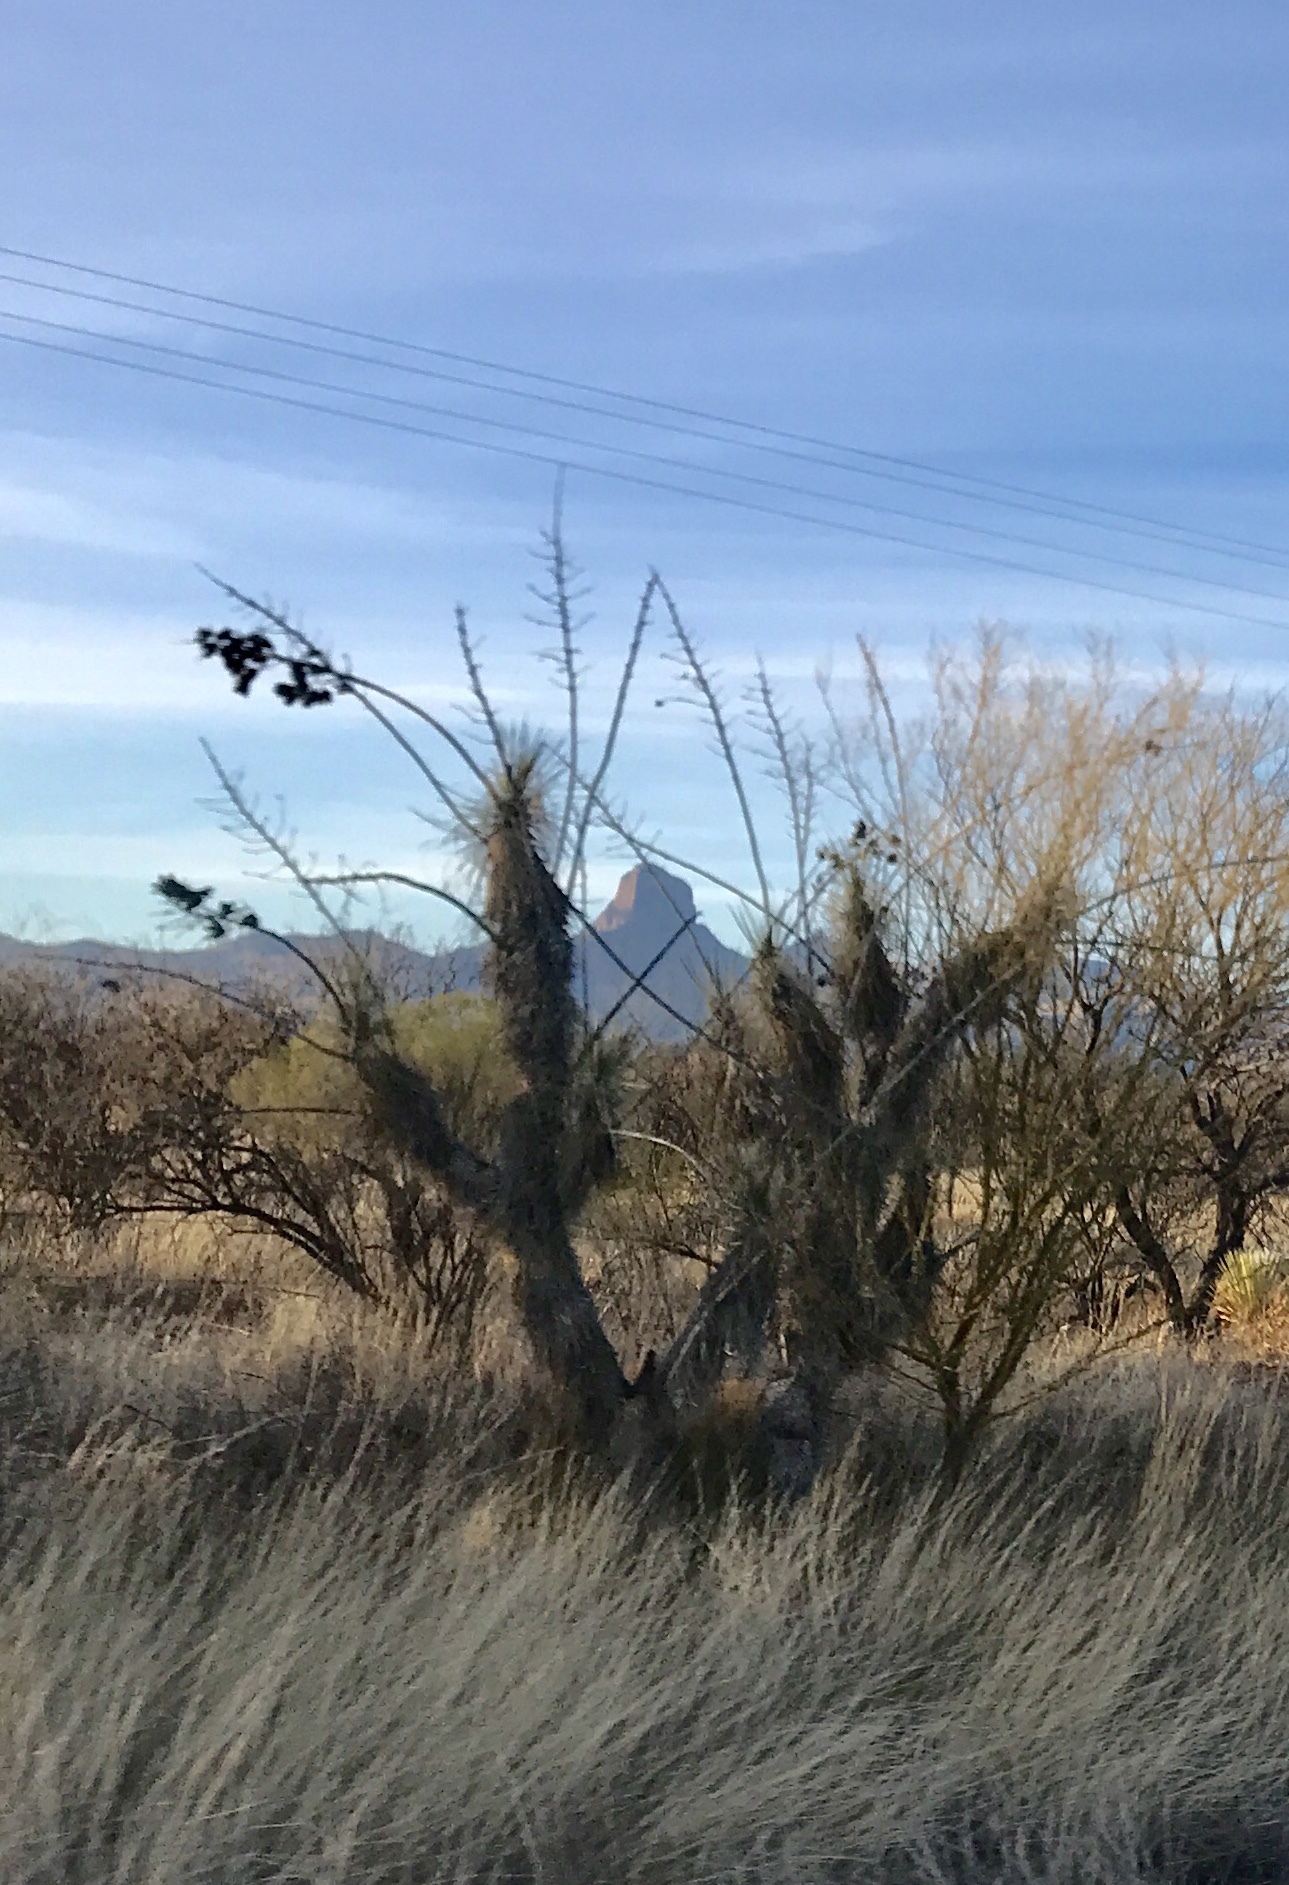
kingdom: Plantae
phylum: Tracheophyta
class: Liliopsida
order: Asparagales
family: Asparagaceae
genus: Yucca
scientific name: Yucca elata
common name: Palmella
